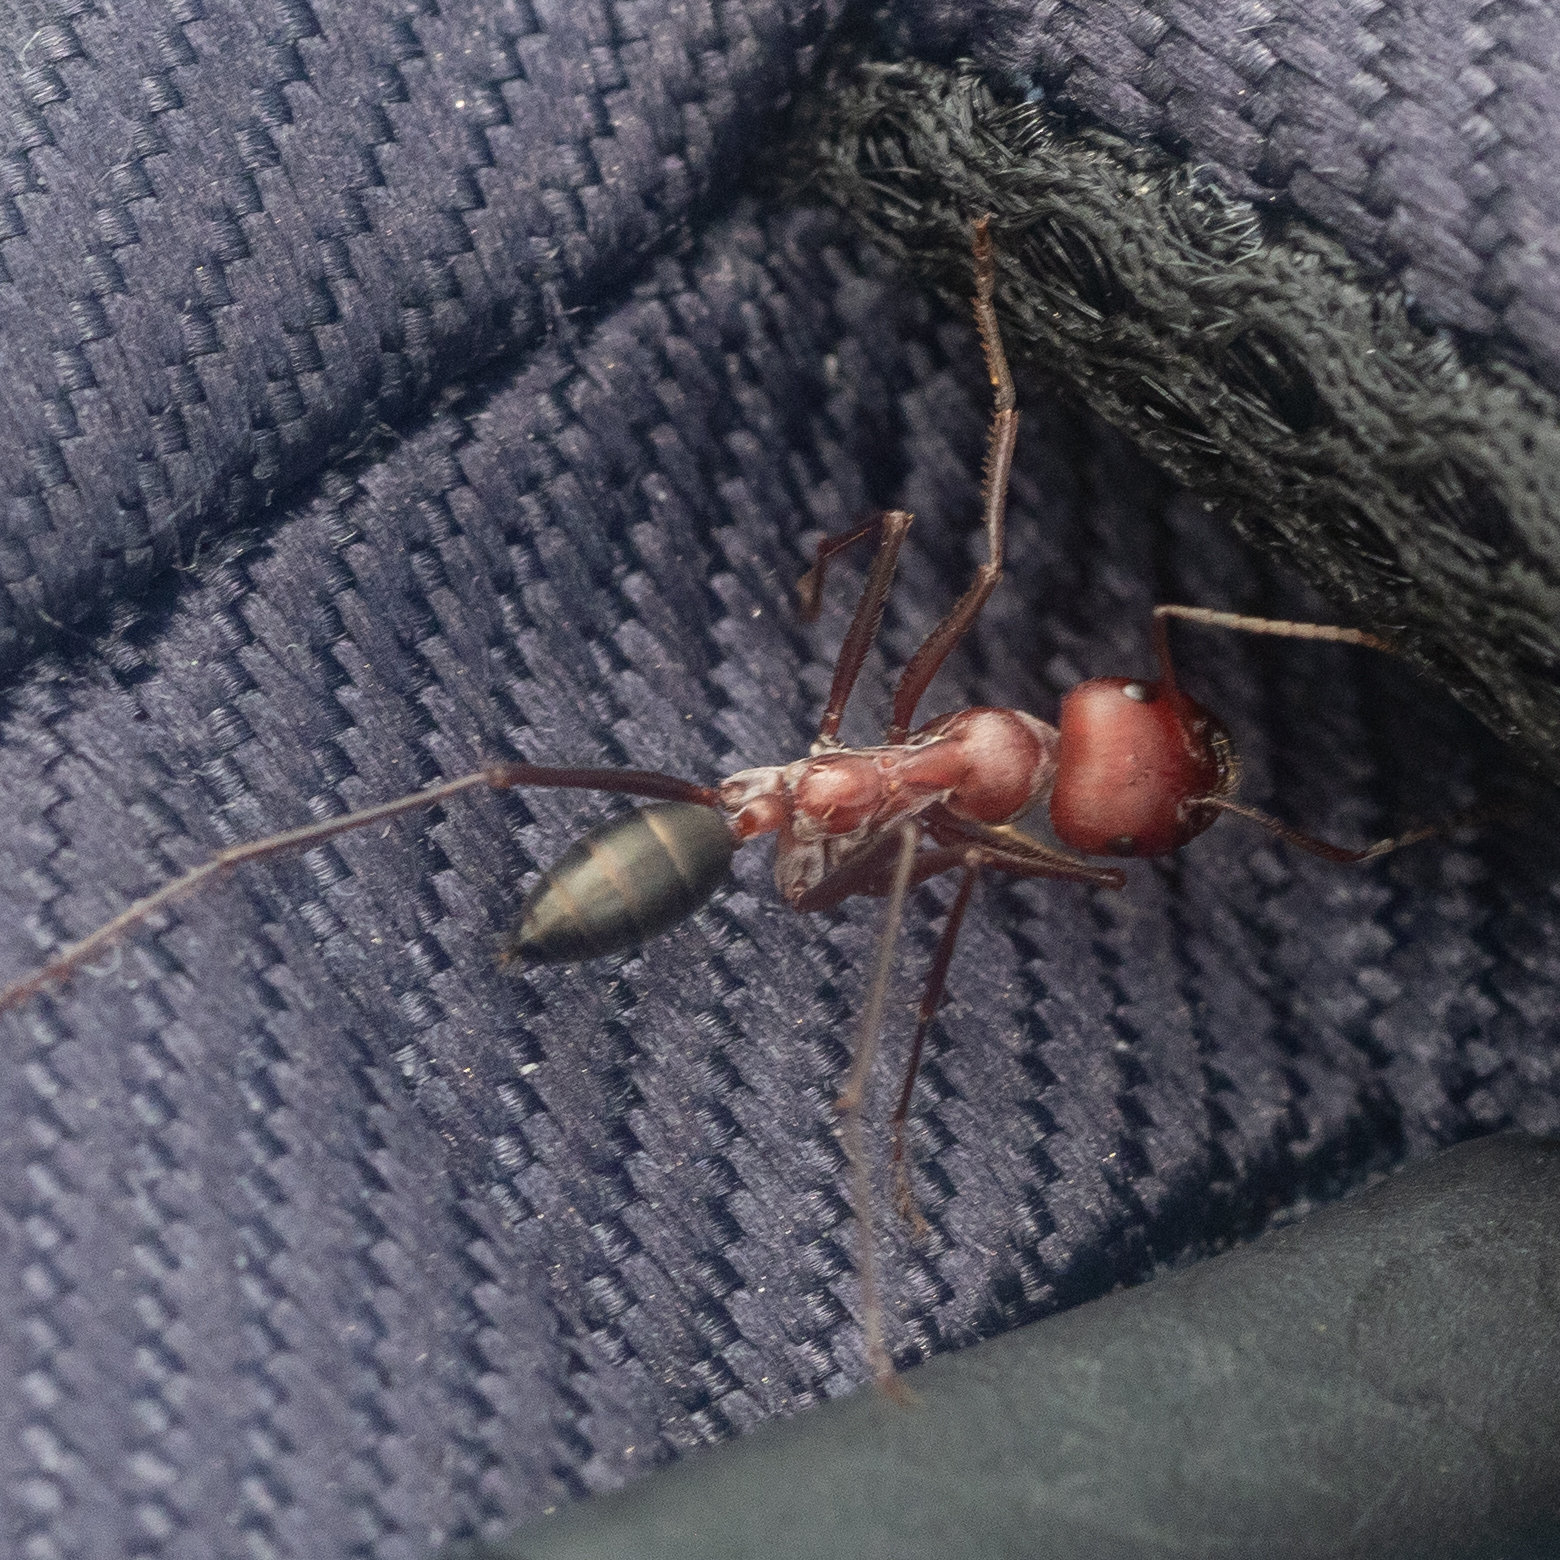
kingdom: Animalia
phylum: Arthropoda
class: Insecta
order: Hymenoptera
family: Formicidae
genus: Cataglyphis
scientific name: Cataglyphis nodus
